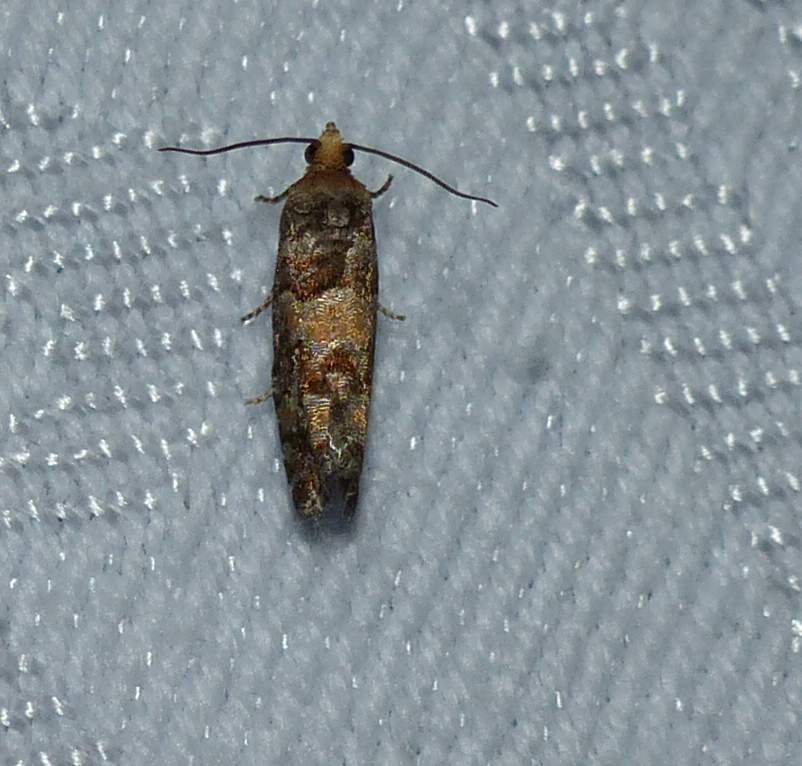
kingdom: Animalia
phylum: Arthropoda
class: Insecta
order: Lepidoptera
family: Tortricidae
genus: Eucopina
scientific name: Eucopina tocullionana
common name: White pinecone borer moth
